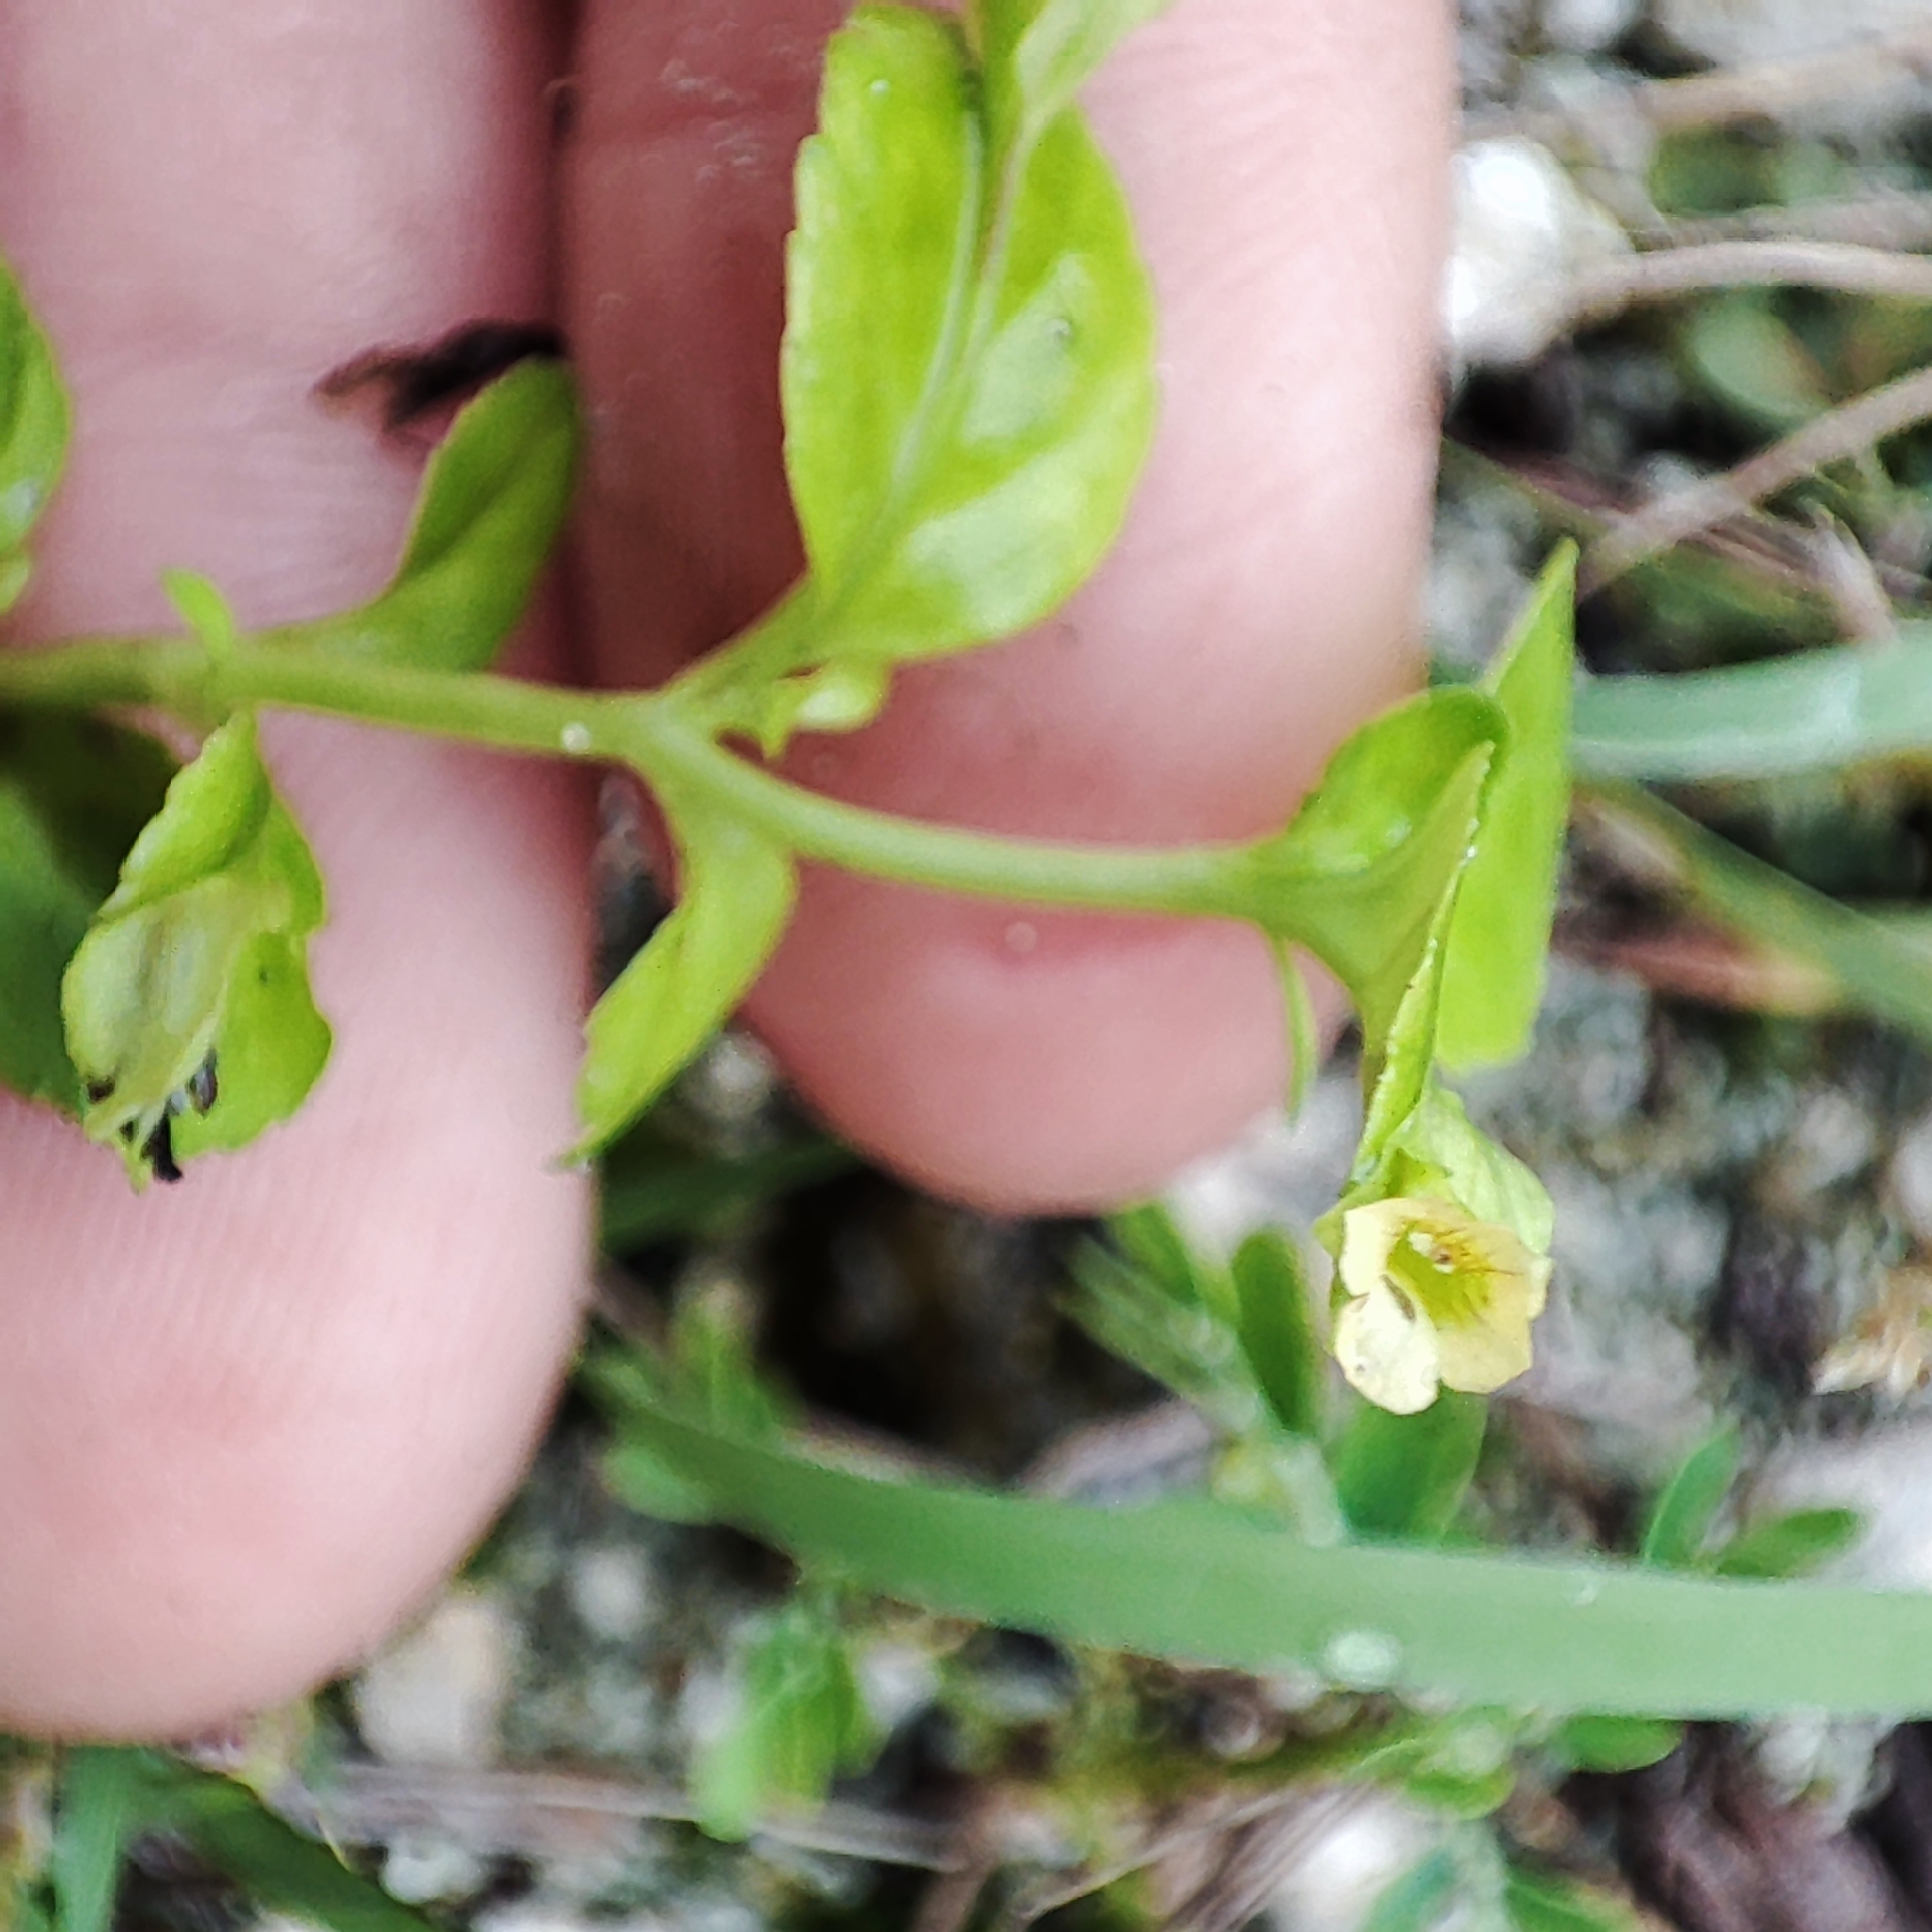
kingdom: Plantae
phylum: Tracheophyta
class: Magnoliopsida
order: Lamiales
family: Plantaginaceae
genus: Mecardonia
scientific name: Mecardonia procumbens
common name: Baby jump-up
